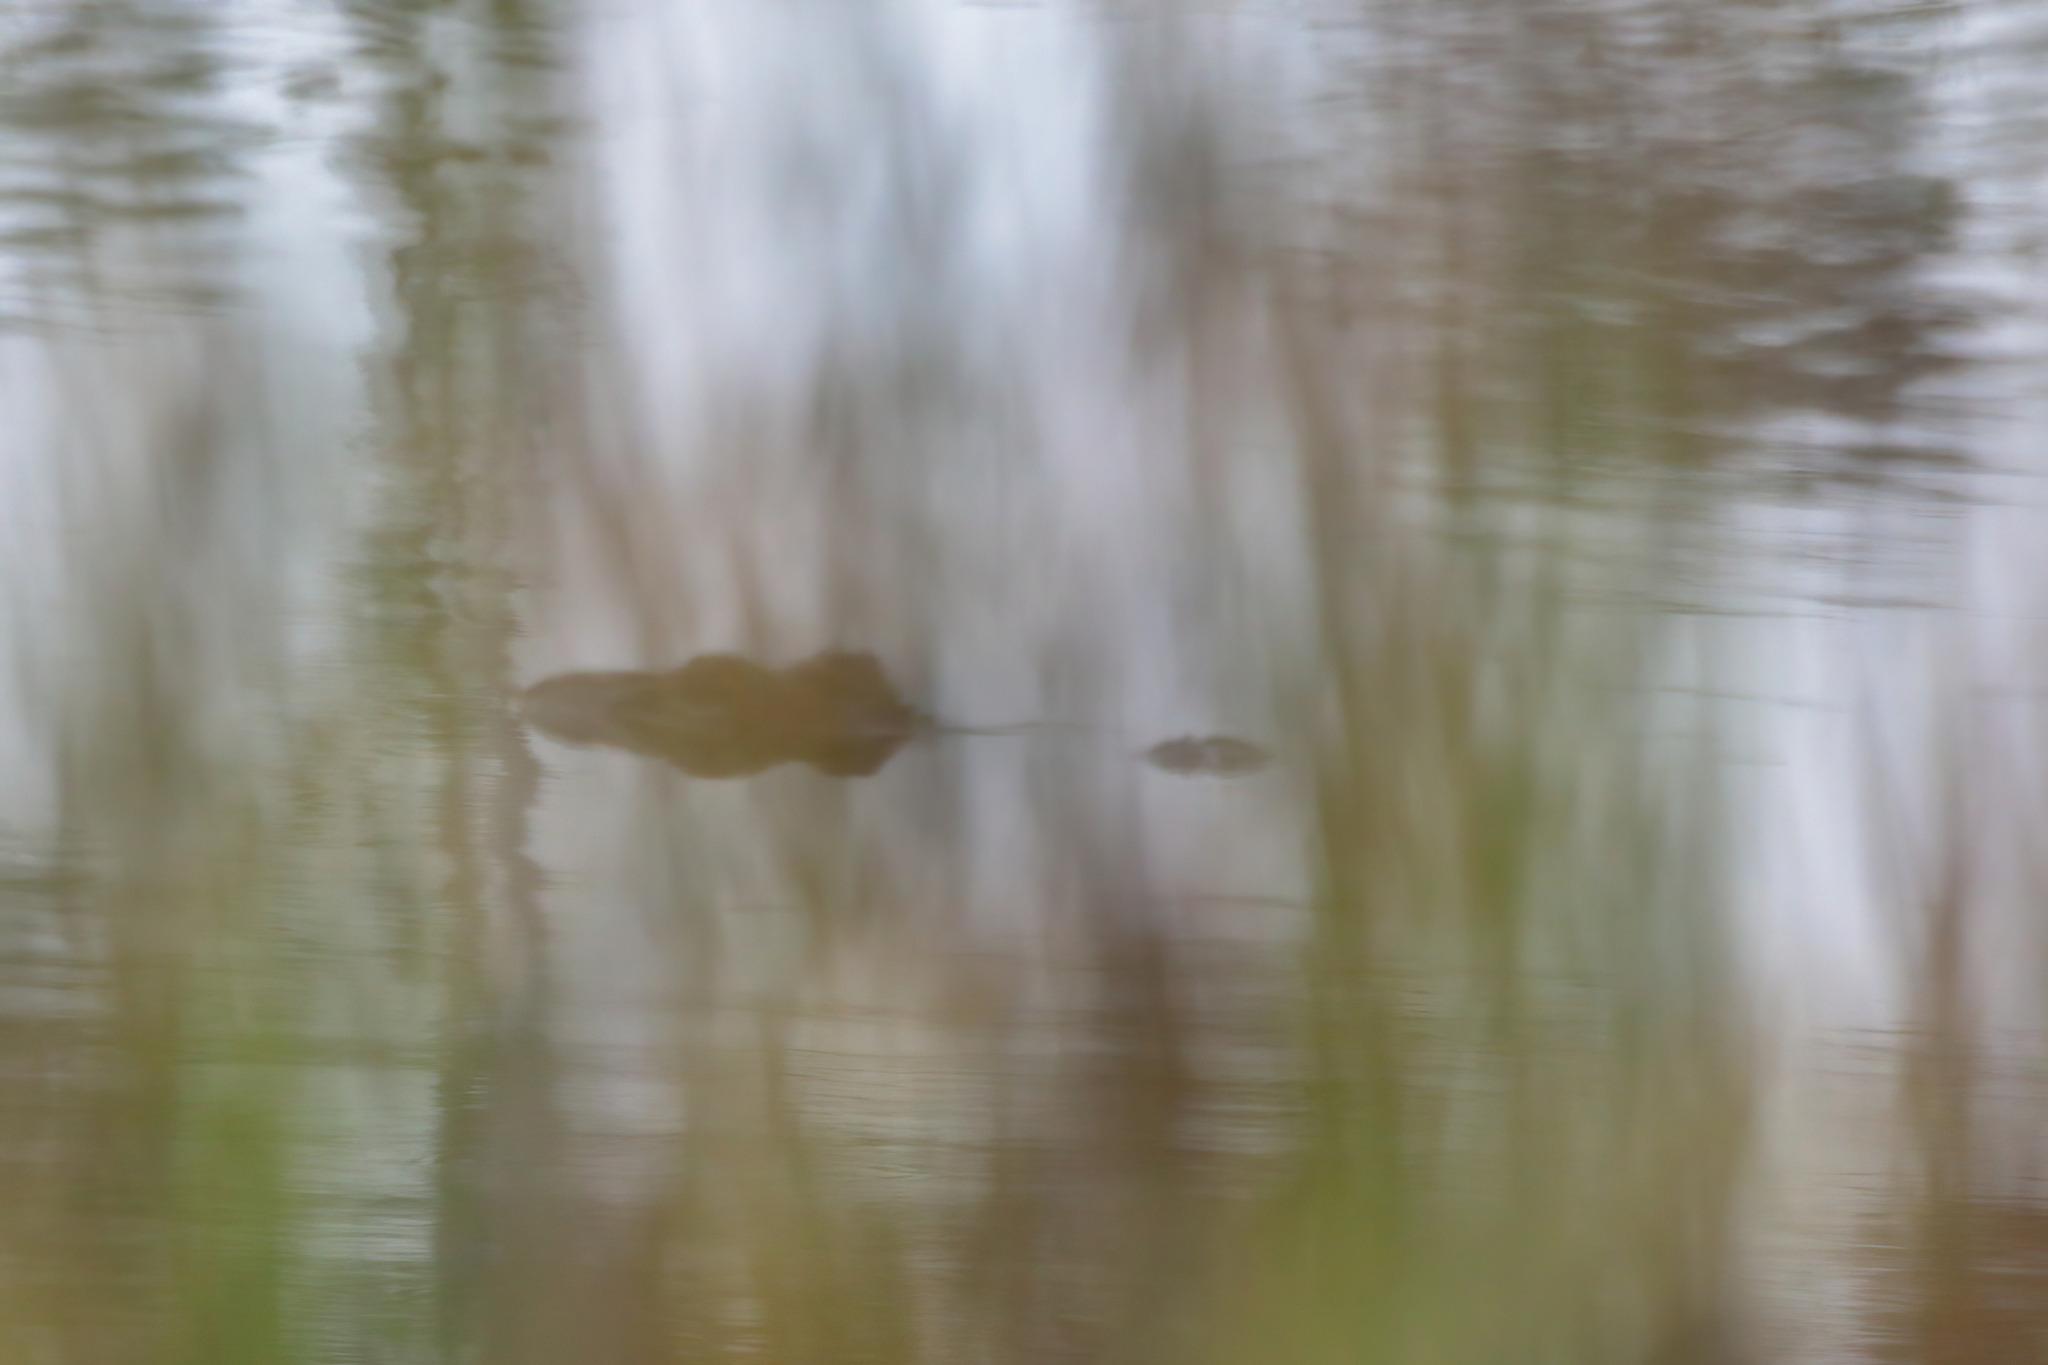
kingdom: Animalia
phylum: Chordata
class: Crocodylia
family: Alligatoridae
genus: Alligator
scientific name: Alligator mississippiensis
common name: American alligator
